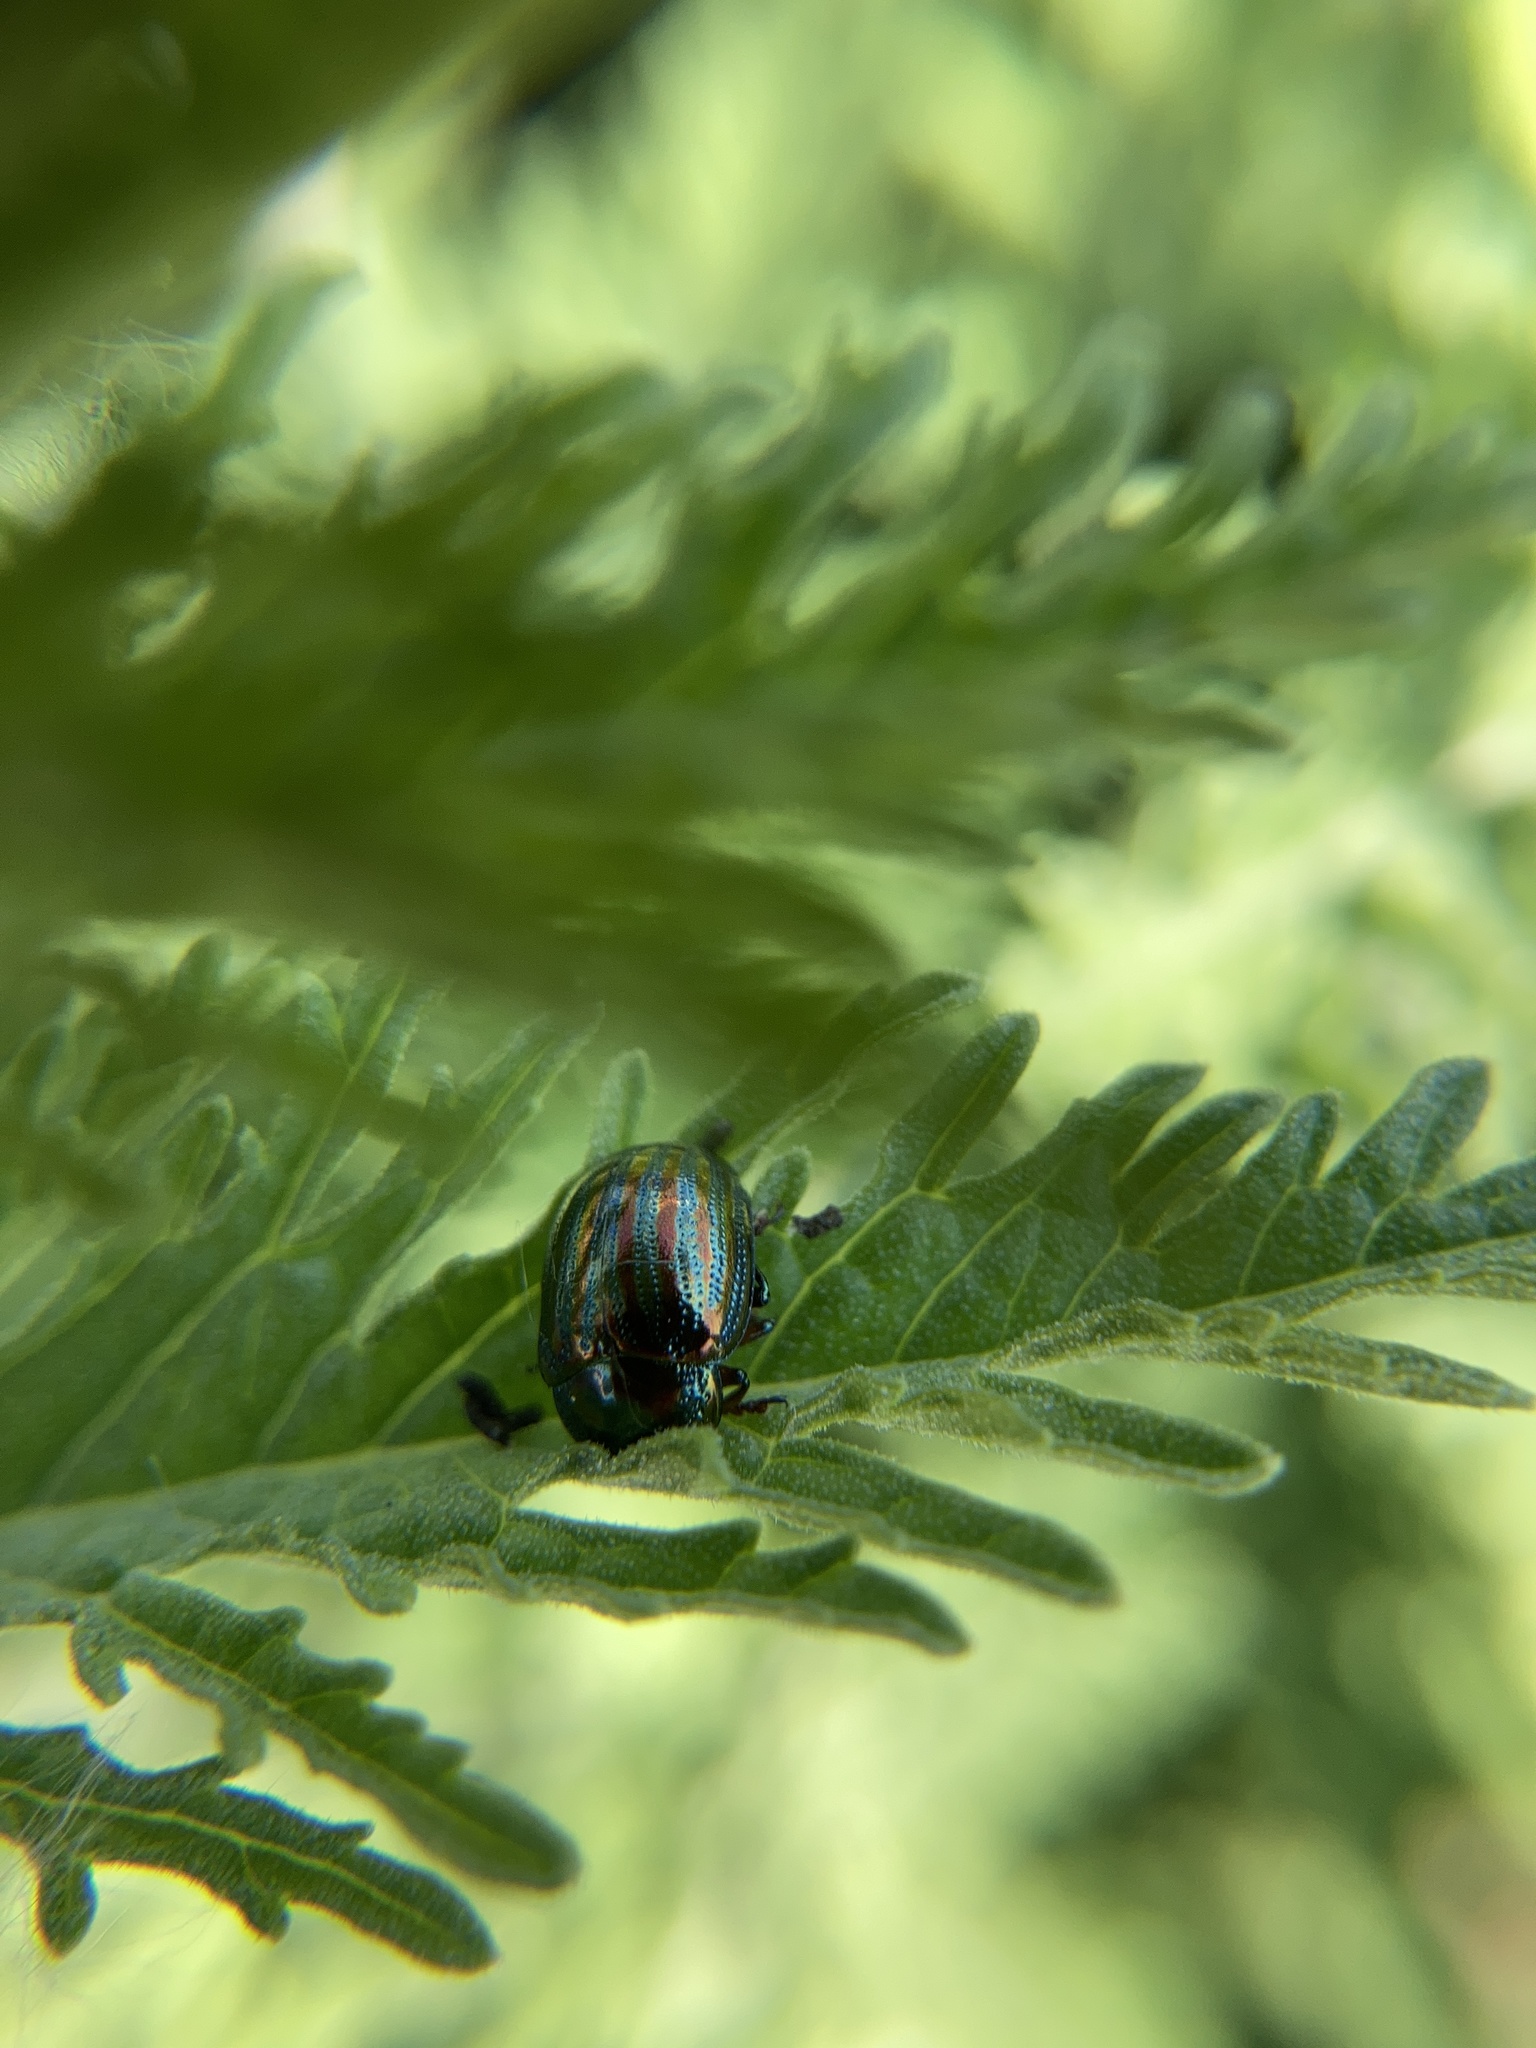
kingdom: Animalia
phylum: Arthropoda
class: Insecta
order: Coleoptera
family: Chrysomelidae
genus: Chrysolina
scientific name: Chrysolina americana
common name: Rosemary beetle
